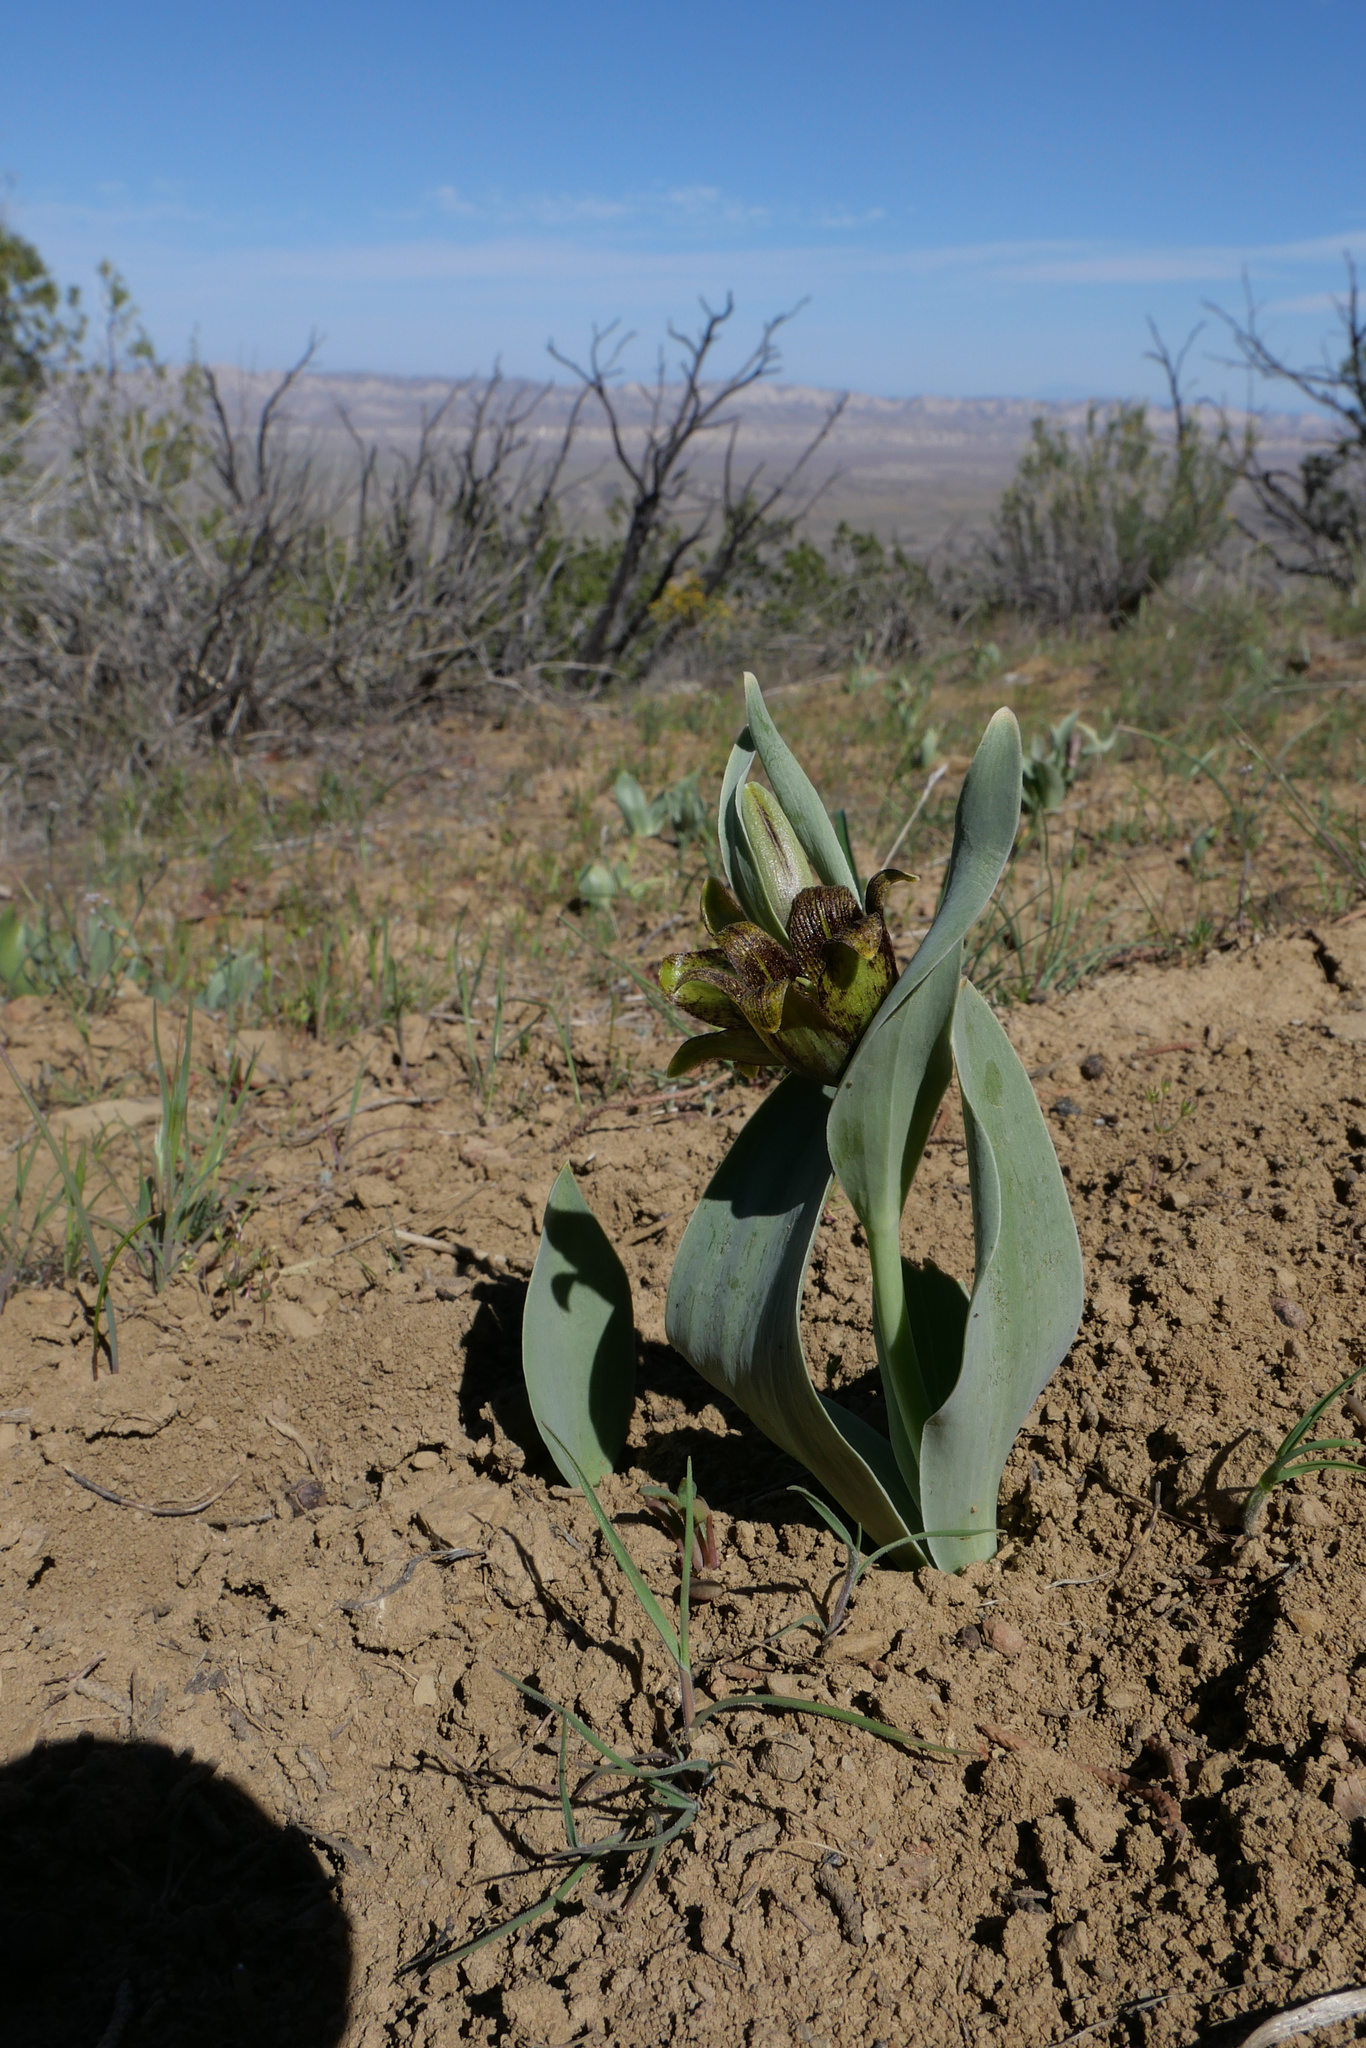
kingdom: Plantae
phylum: Tracheophyta
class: Liliopsida
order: Liliales
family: Liliaceae
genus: Fritillaria
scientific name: Fritillaria agrestis
